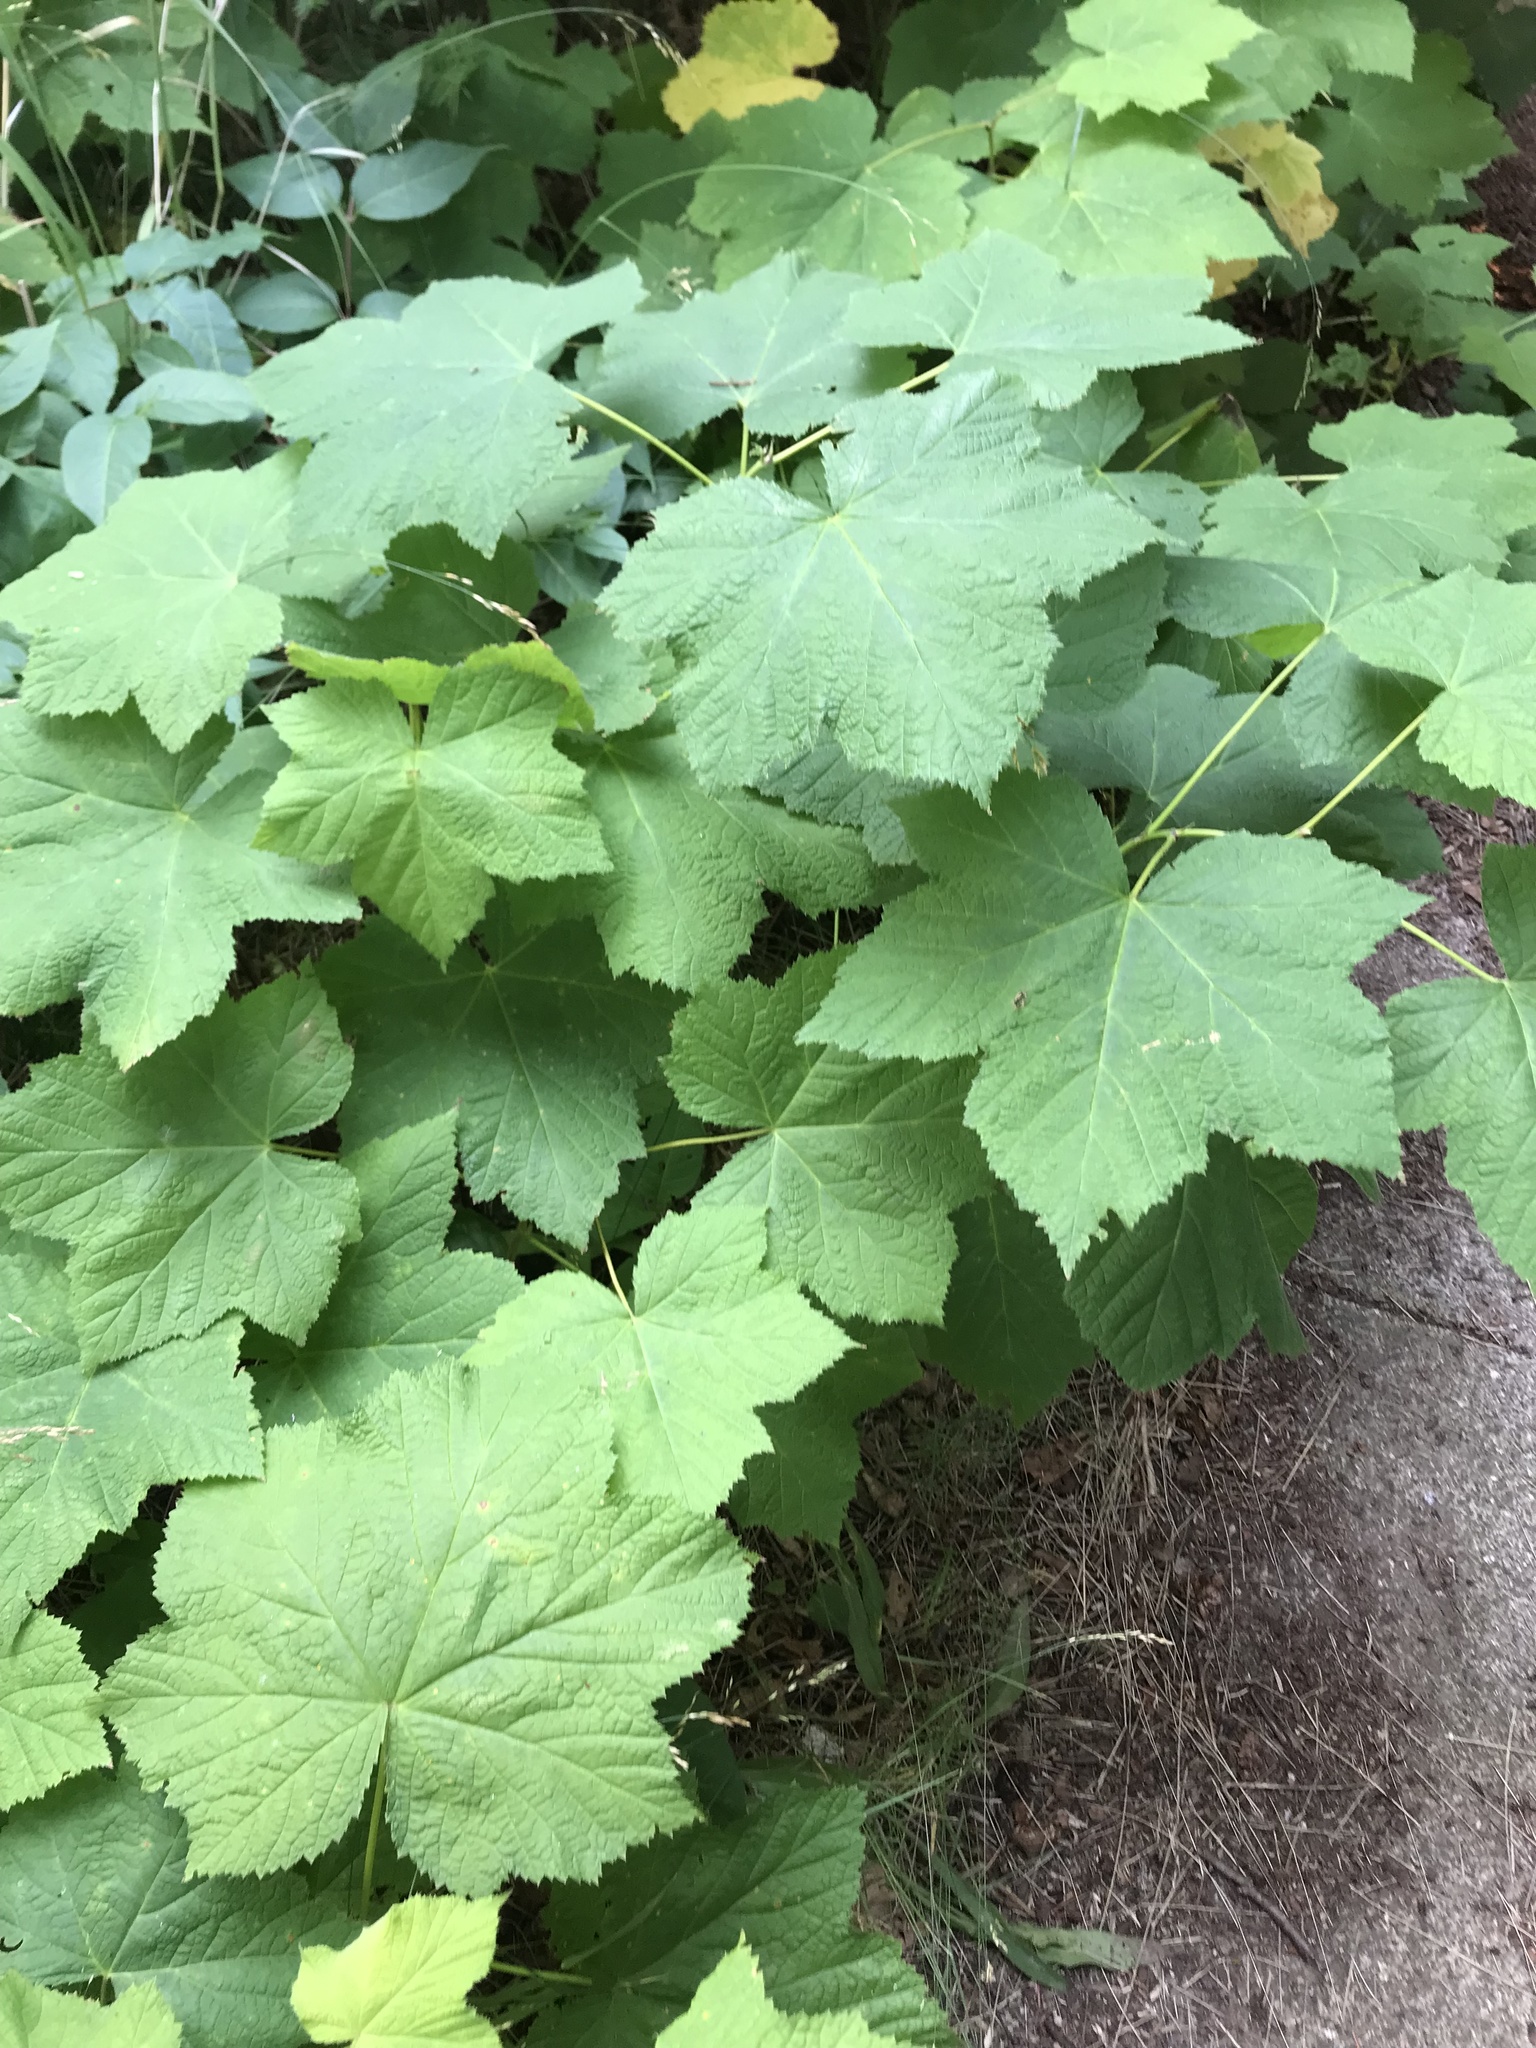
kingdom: Plantae
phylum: Tracheophyta
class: Magnoliopsida
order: Rosales
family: Rosaceae
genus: Rubus
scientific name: Rubus parviflorus
